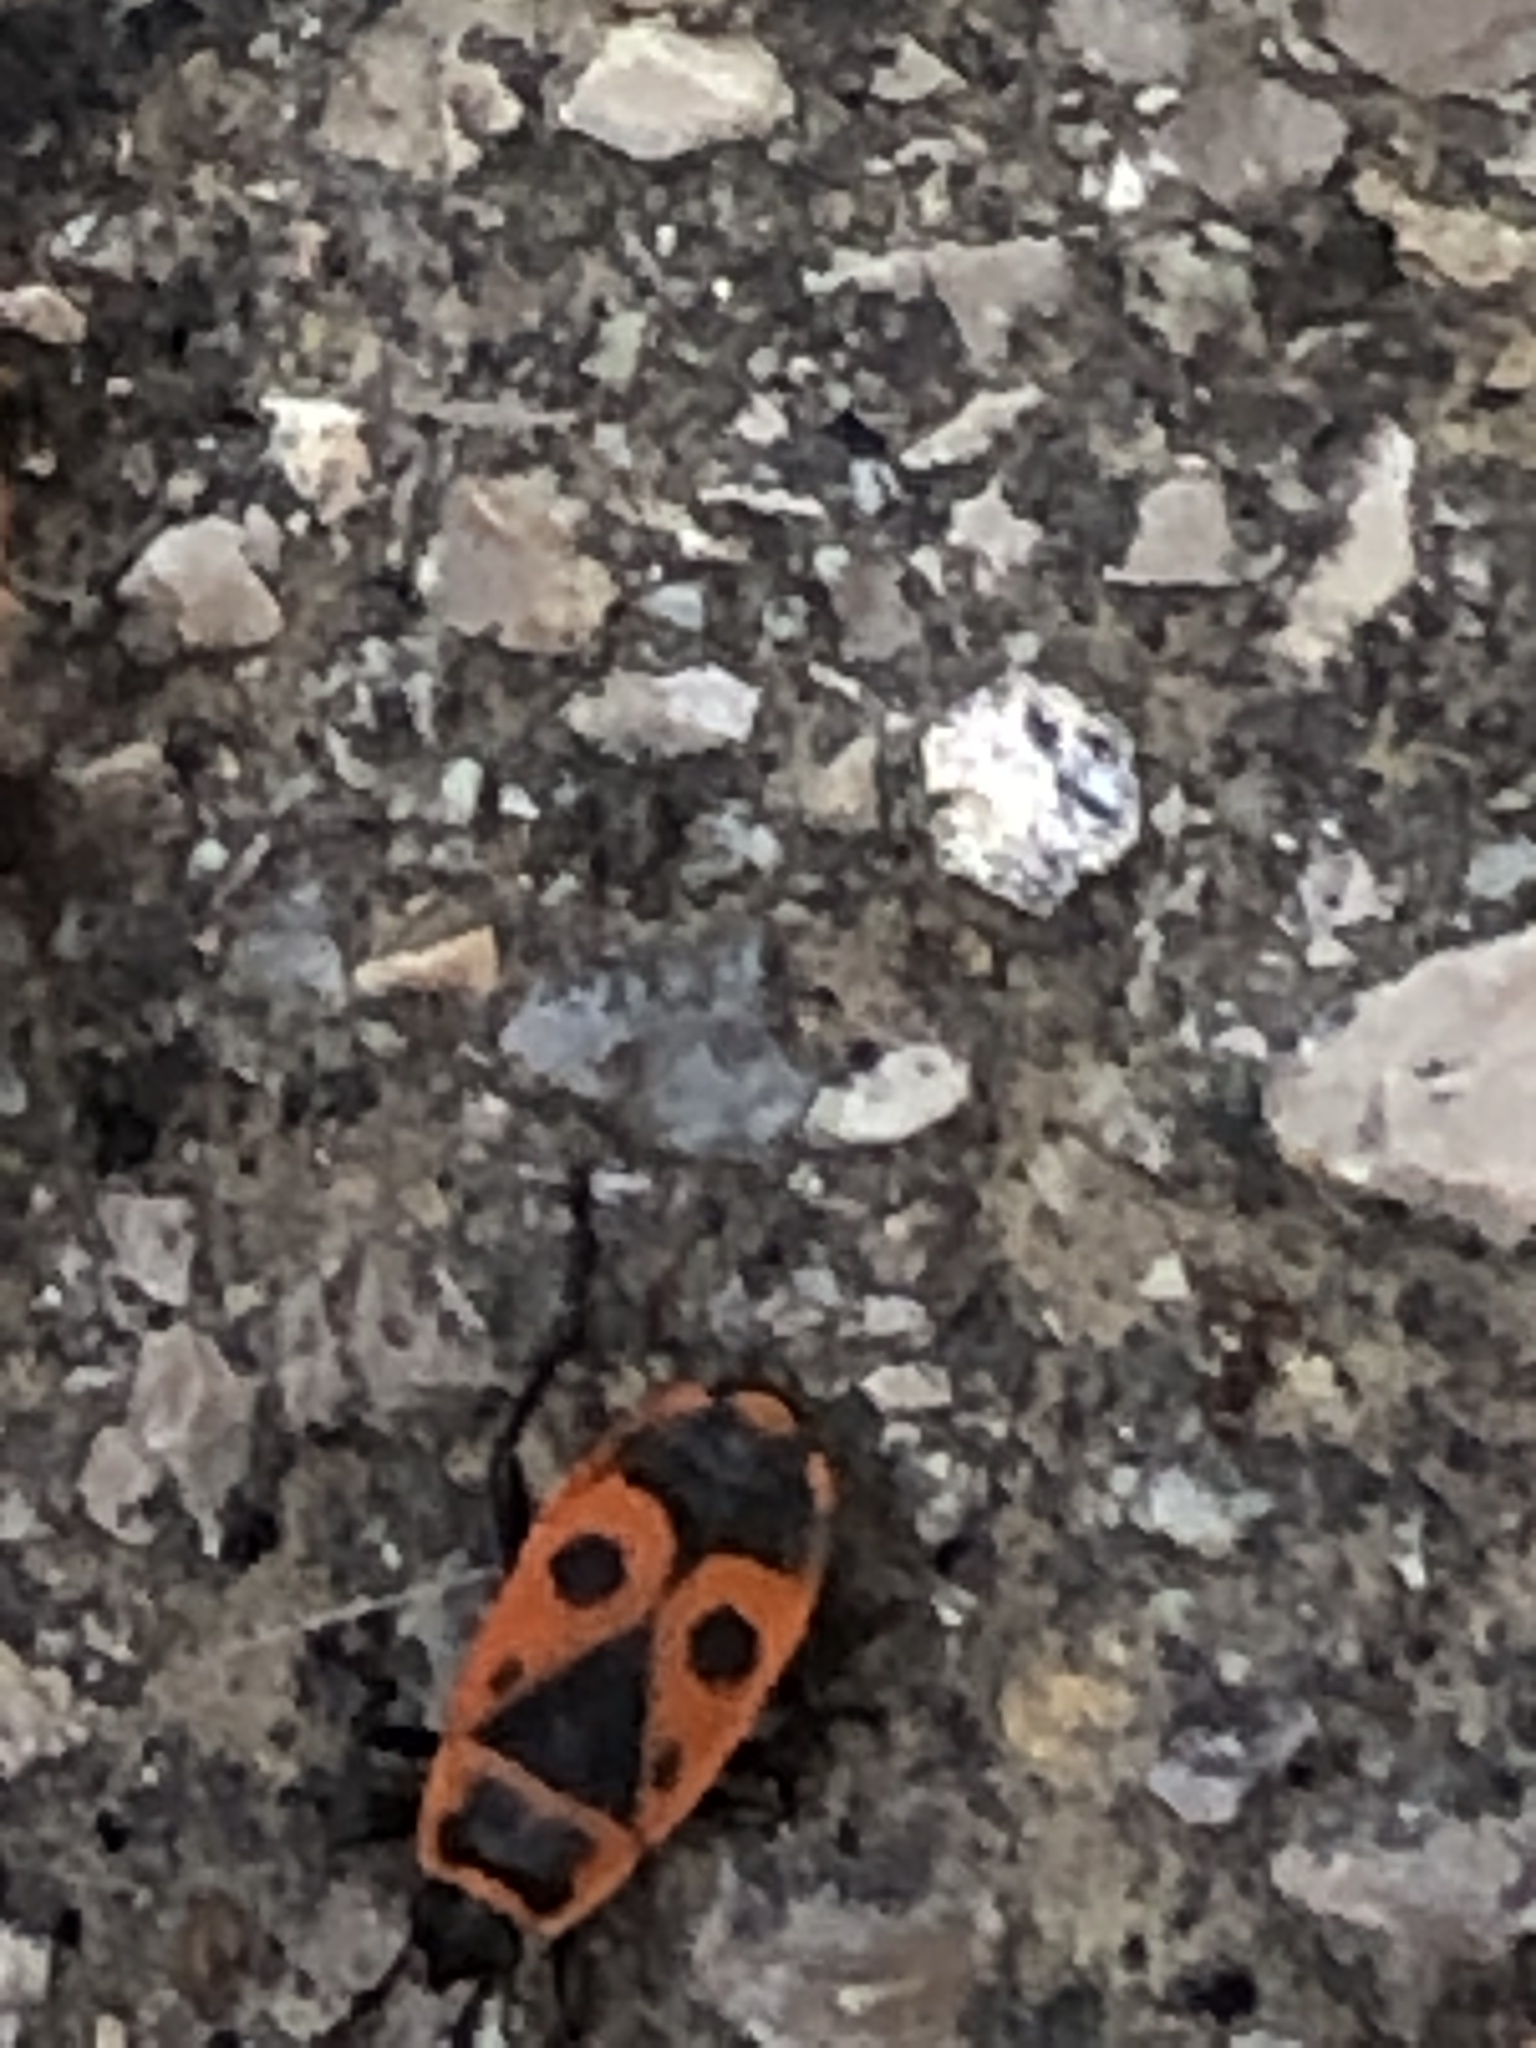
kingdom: Animalia
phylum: Arthropoda
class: Insecta
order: Hemiptera
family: Pyrrhocoridae
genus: Pyrrhocoris
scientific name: Pyrrhocoris apterus
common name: Firebug
